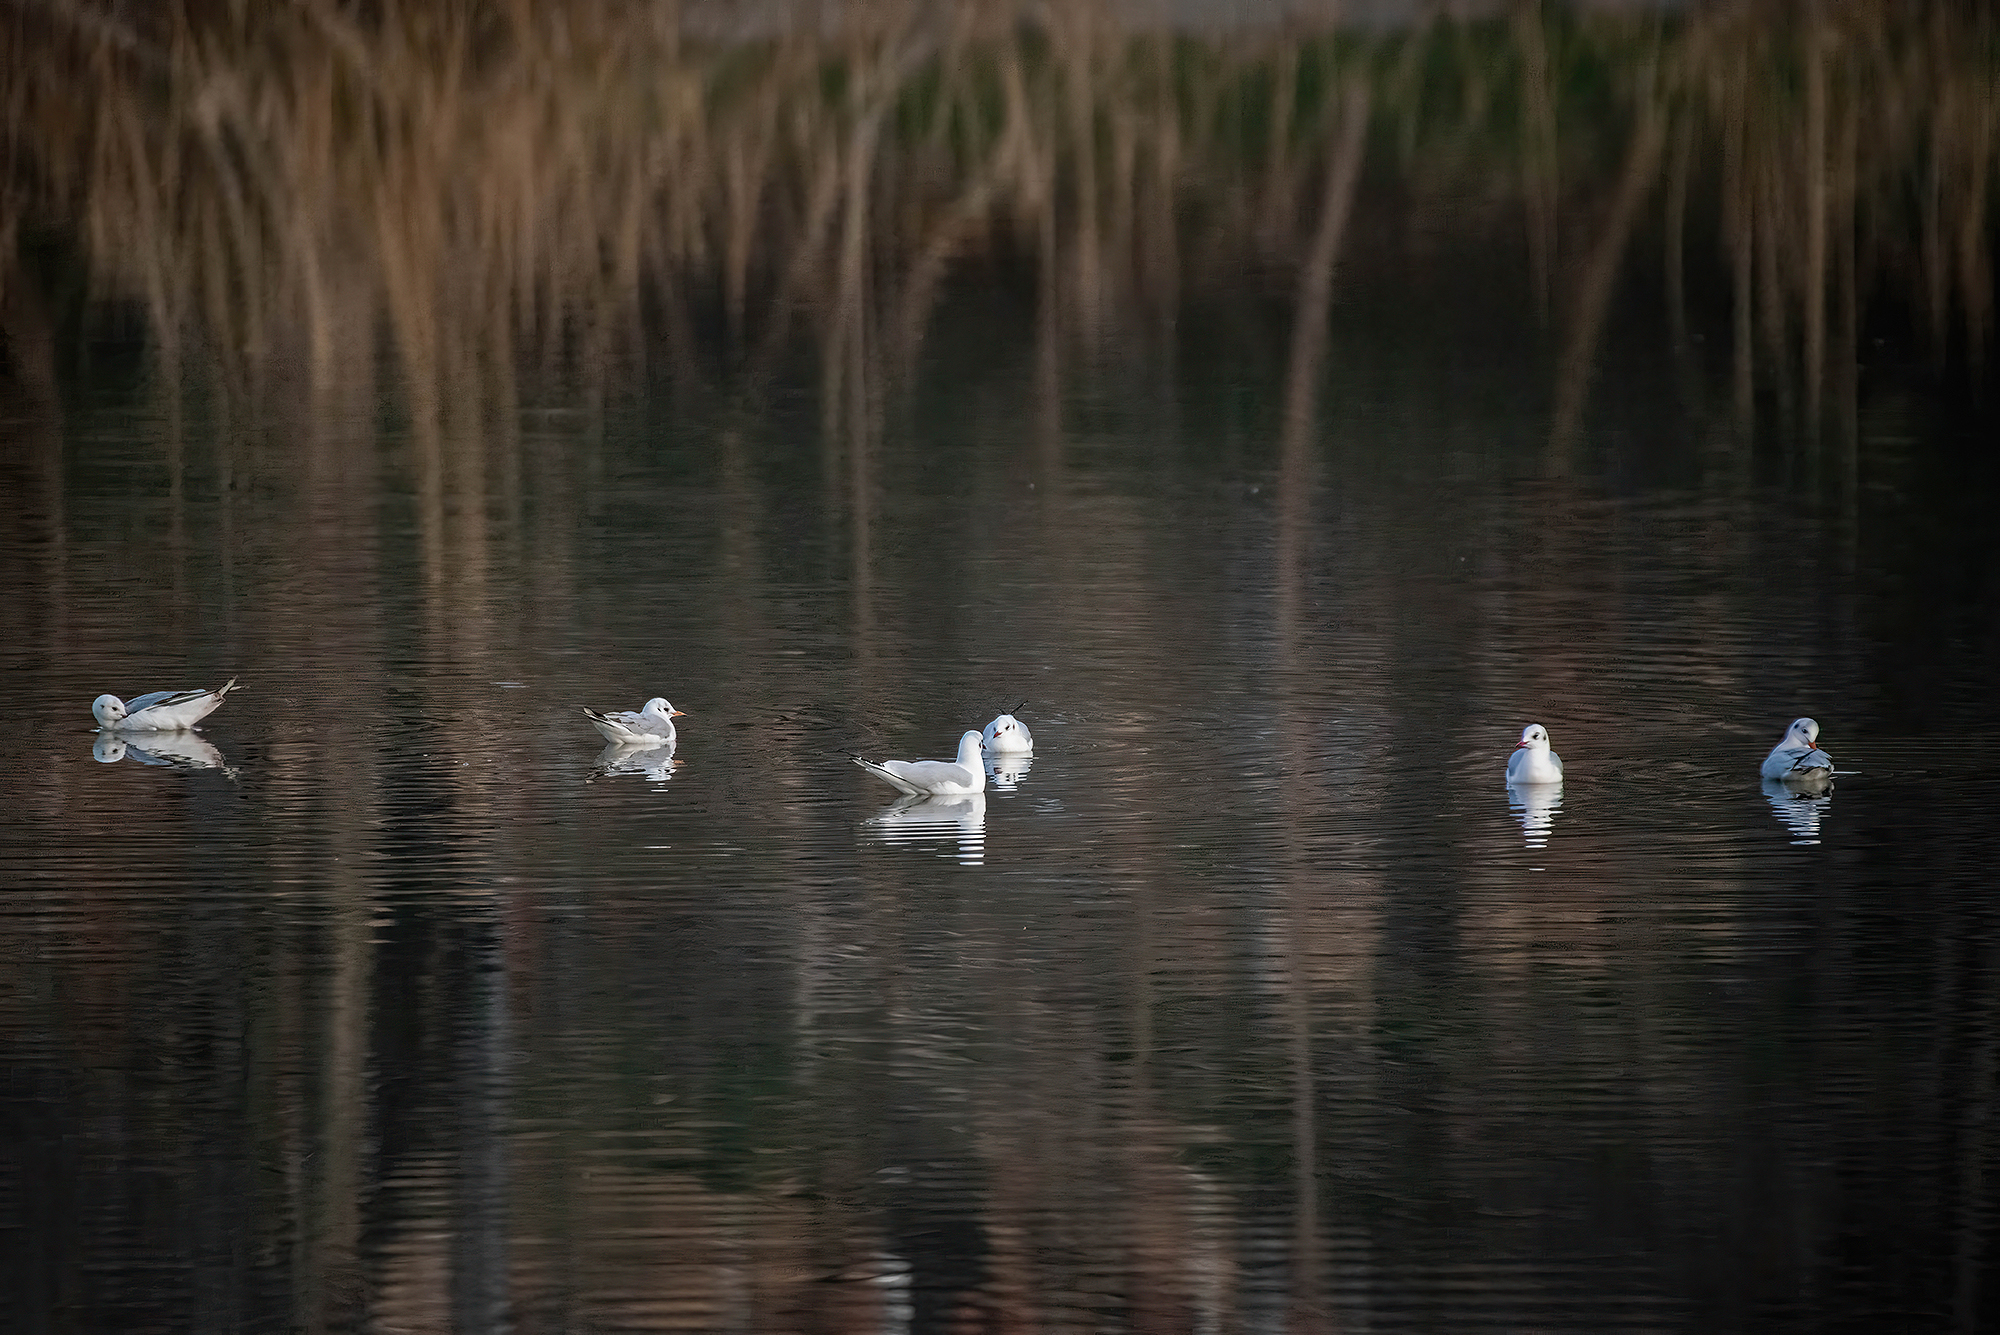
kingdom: Animalia
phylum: Chordata
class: Aves
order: Charadriiformes
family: Laridae
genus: Chroicocephalus
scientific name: Chroicocephalus ridibundus
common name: Black-headed gull
